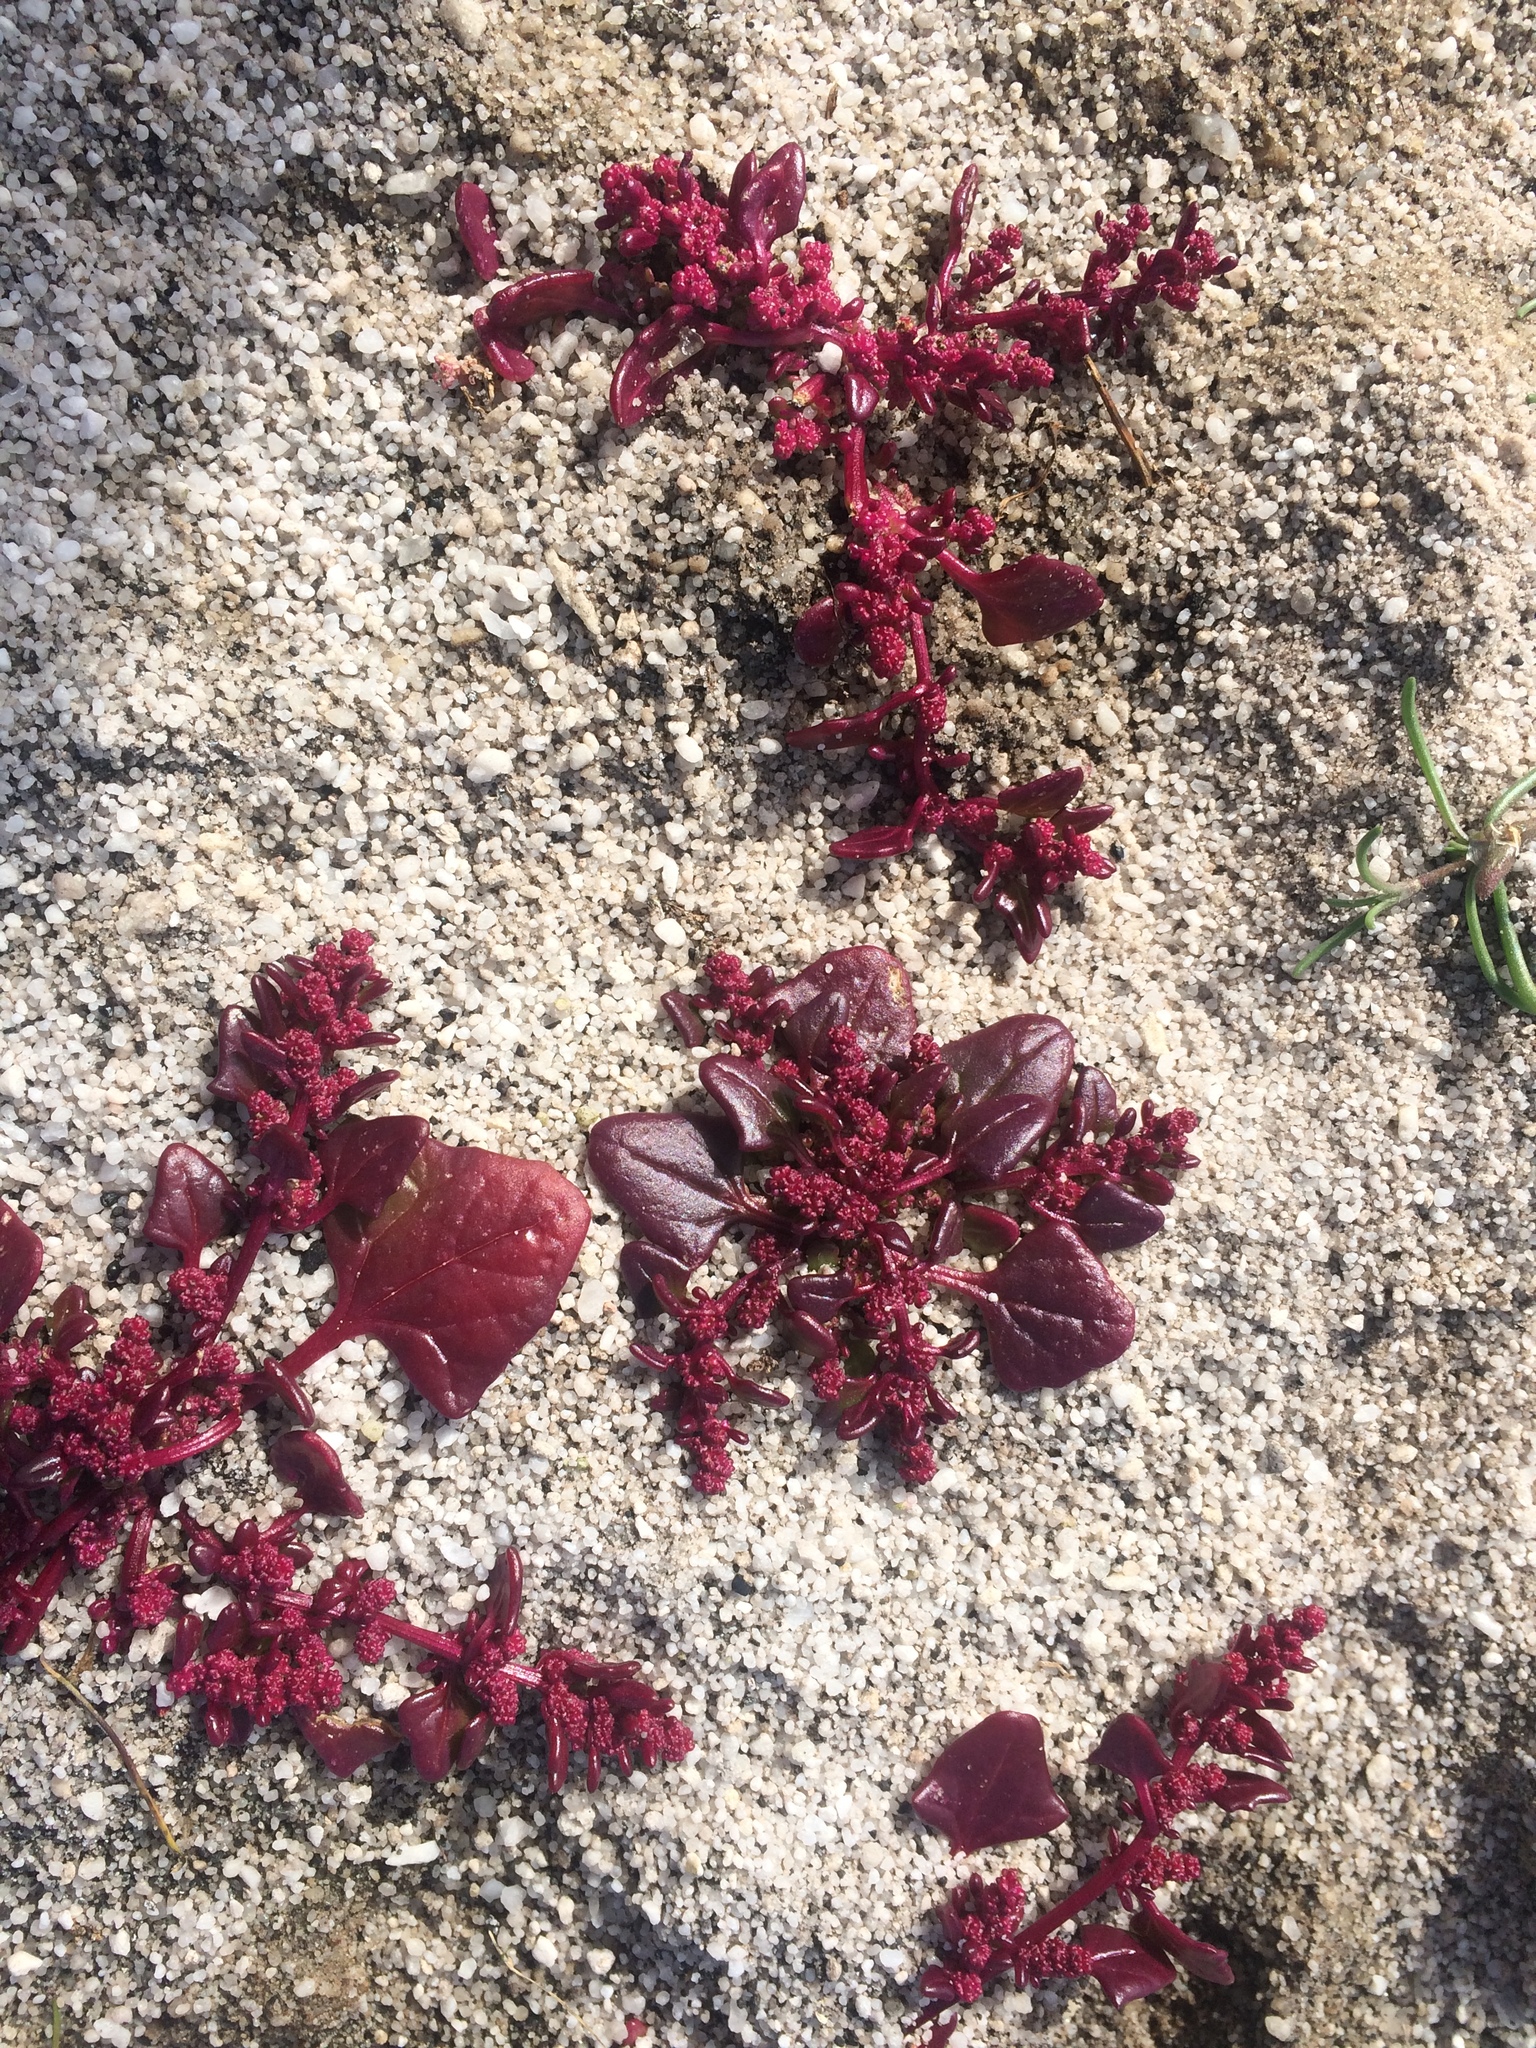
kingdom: Plantae
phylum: Tracheophyta
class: Magnoliopsida
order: Caryophyllales
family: Amaranthaceae
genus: Oxybasis
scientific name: Oxybasis chenopodioides
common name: Saltmarsh goosefoot
